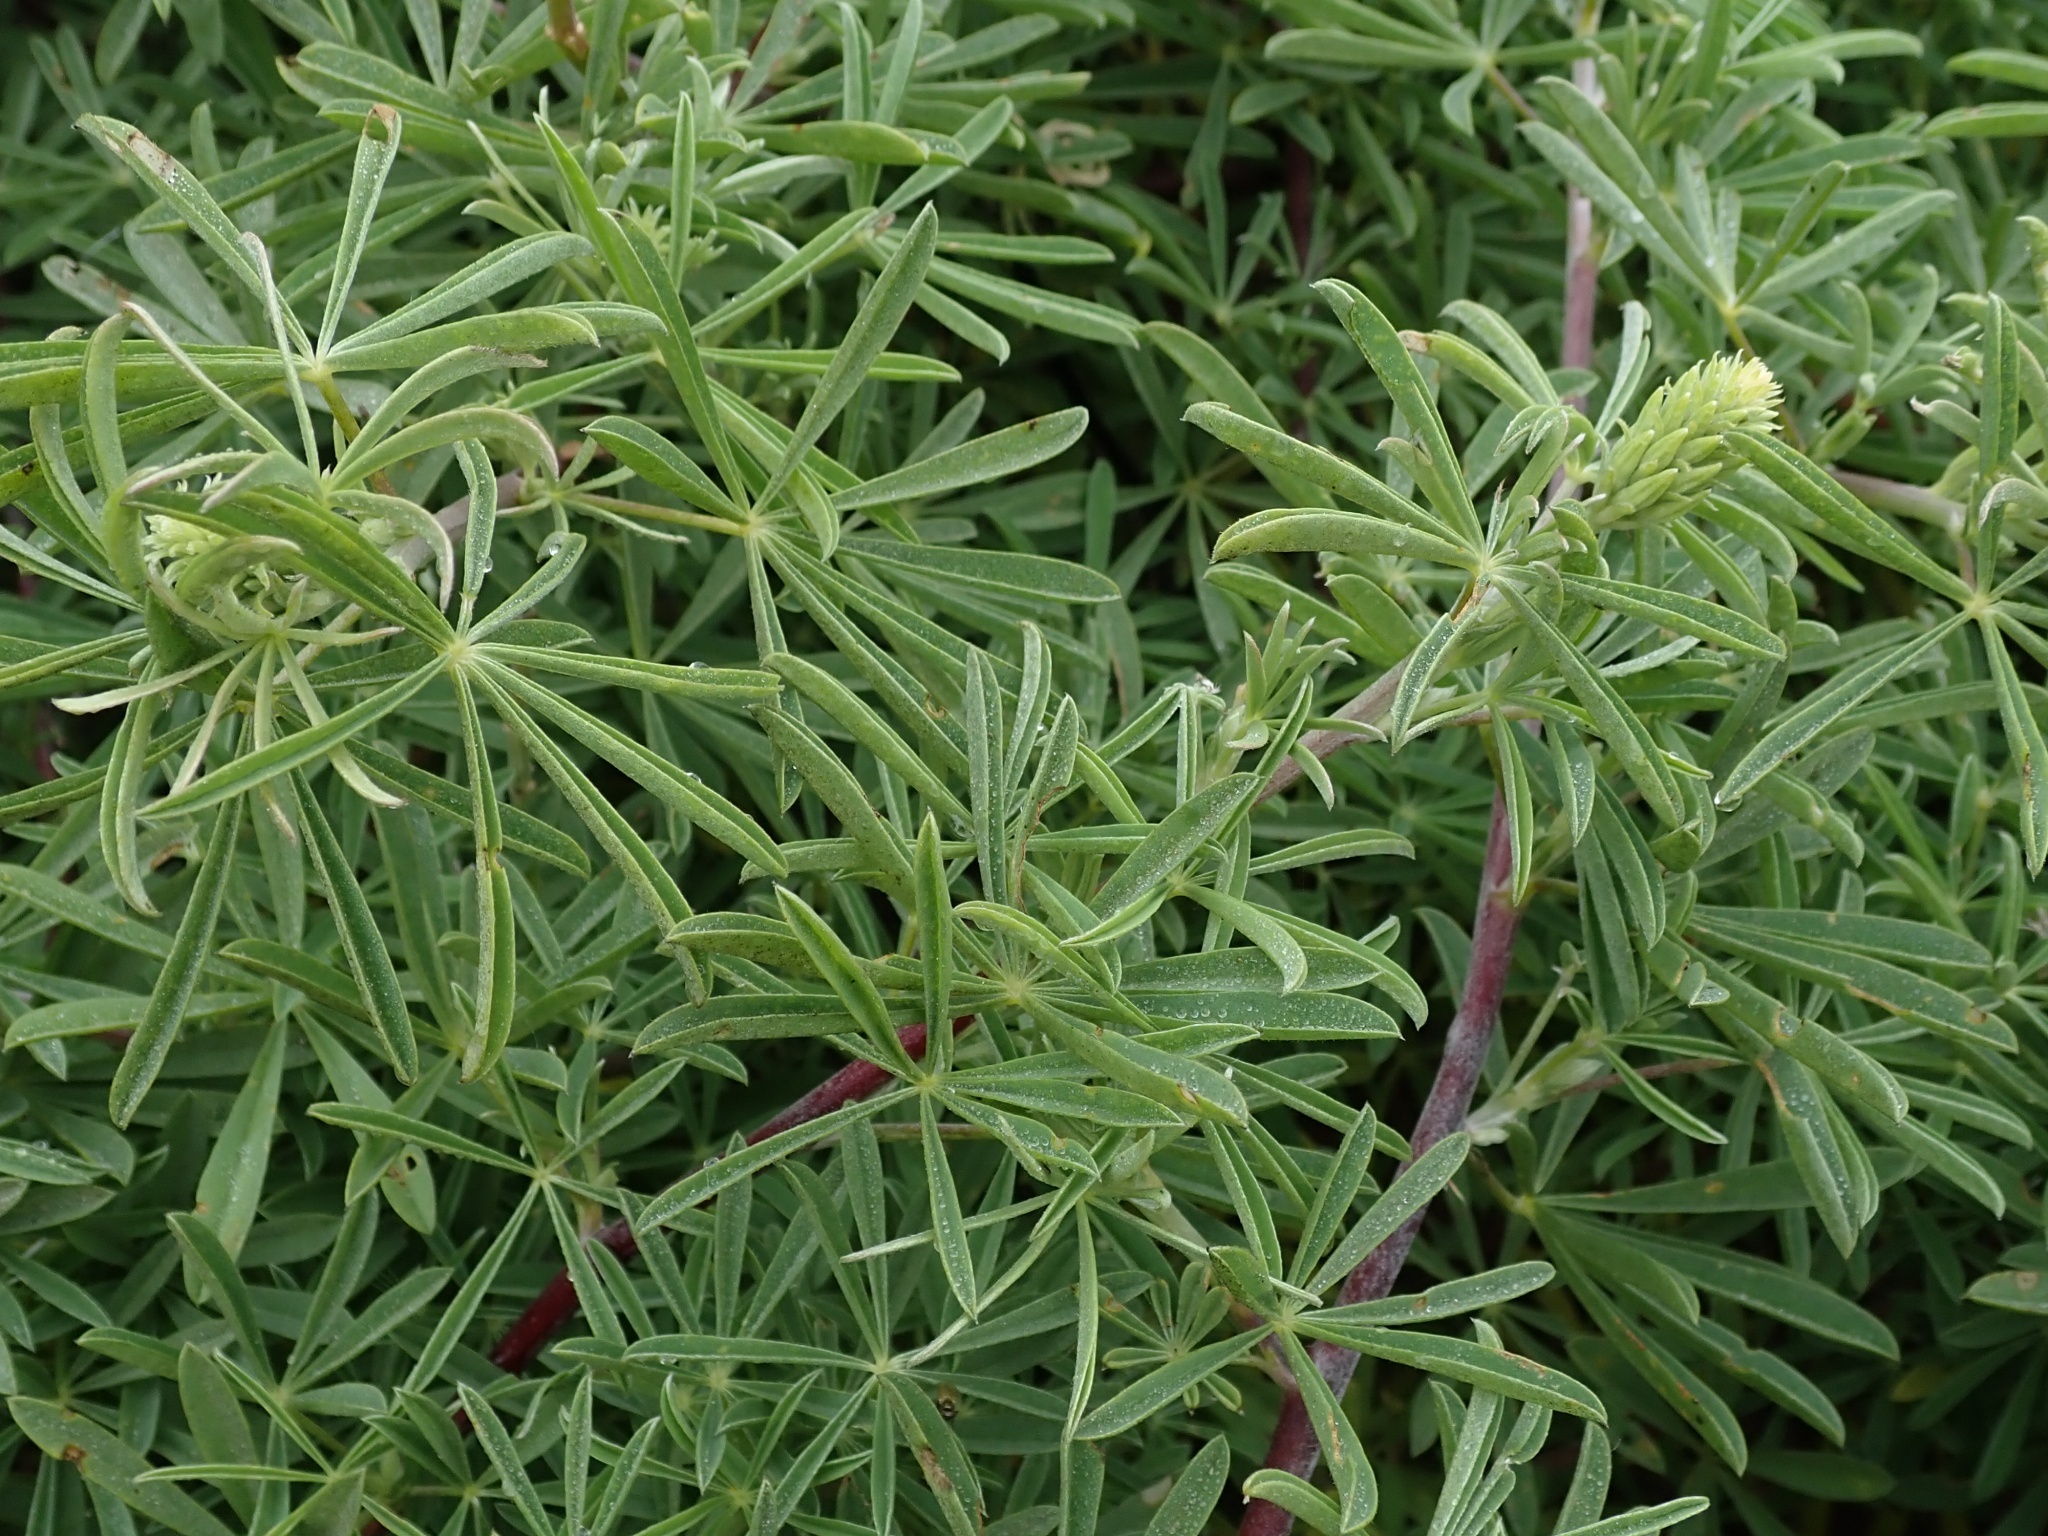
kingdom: Plantae
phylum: Tracheophyta
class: Magnoliopsida
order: Fabales
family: Fabaceae
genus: Lupinus
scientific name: Lupinus arboreus
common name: Yellow bush lupine
